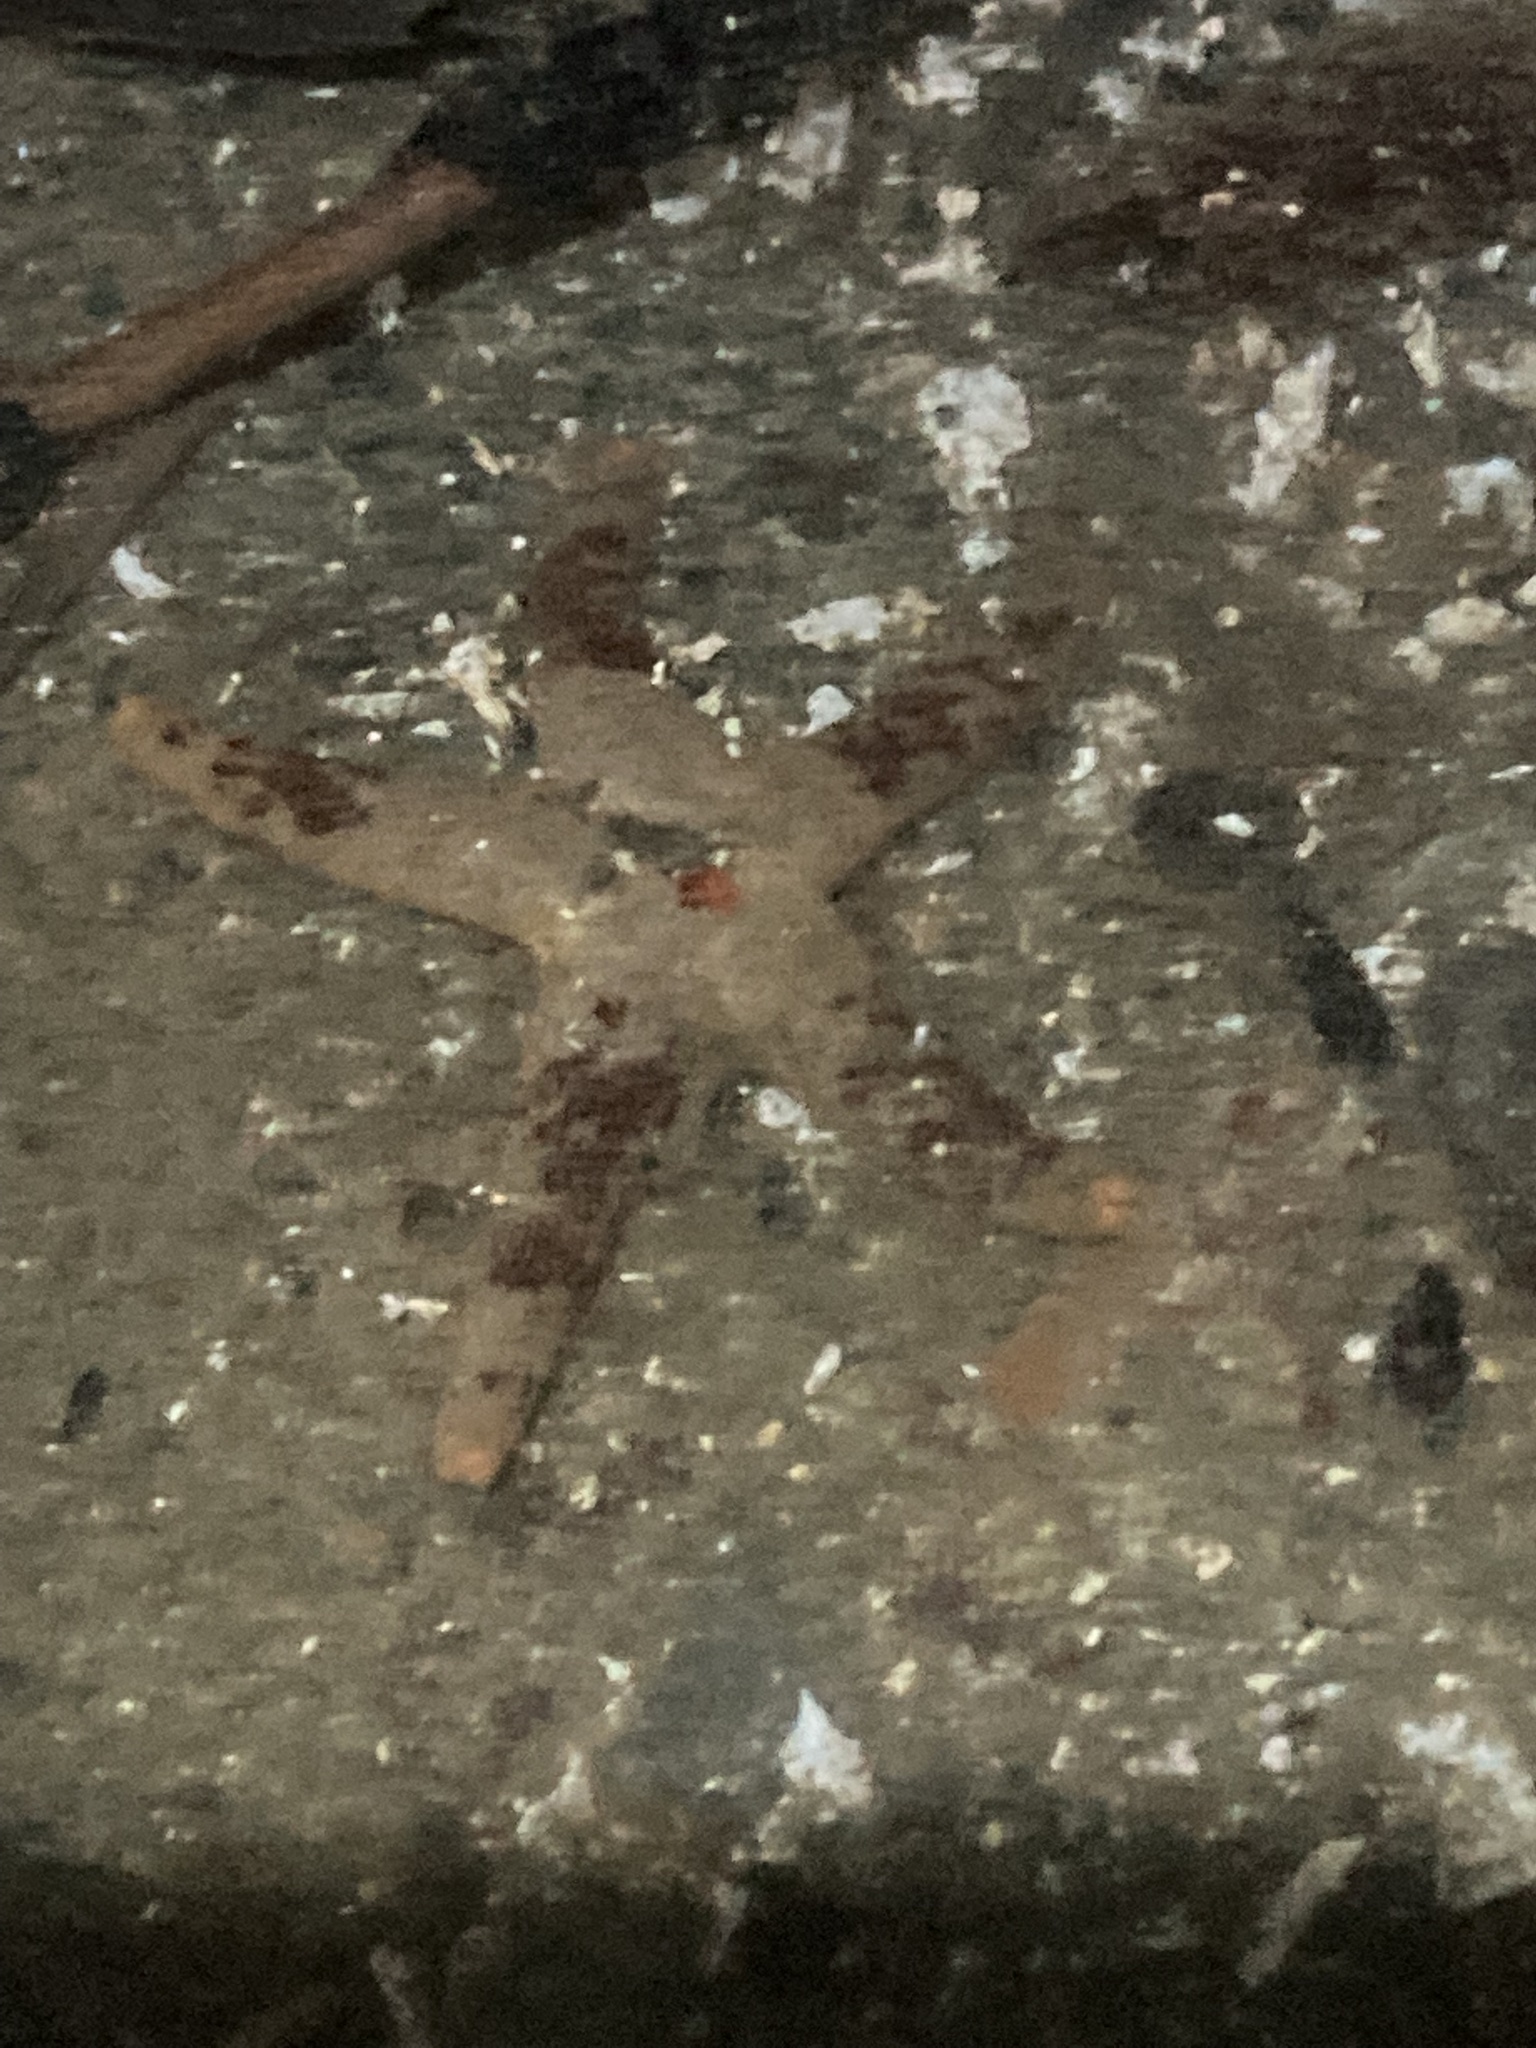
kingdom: Animalia
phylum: Echinodermata
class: Asteroidea
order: Spinulosida
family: Echinasteridae
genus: Henricia
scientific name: Henricia pumila
